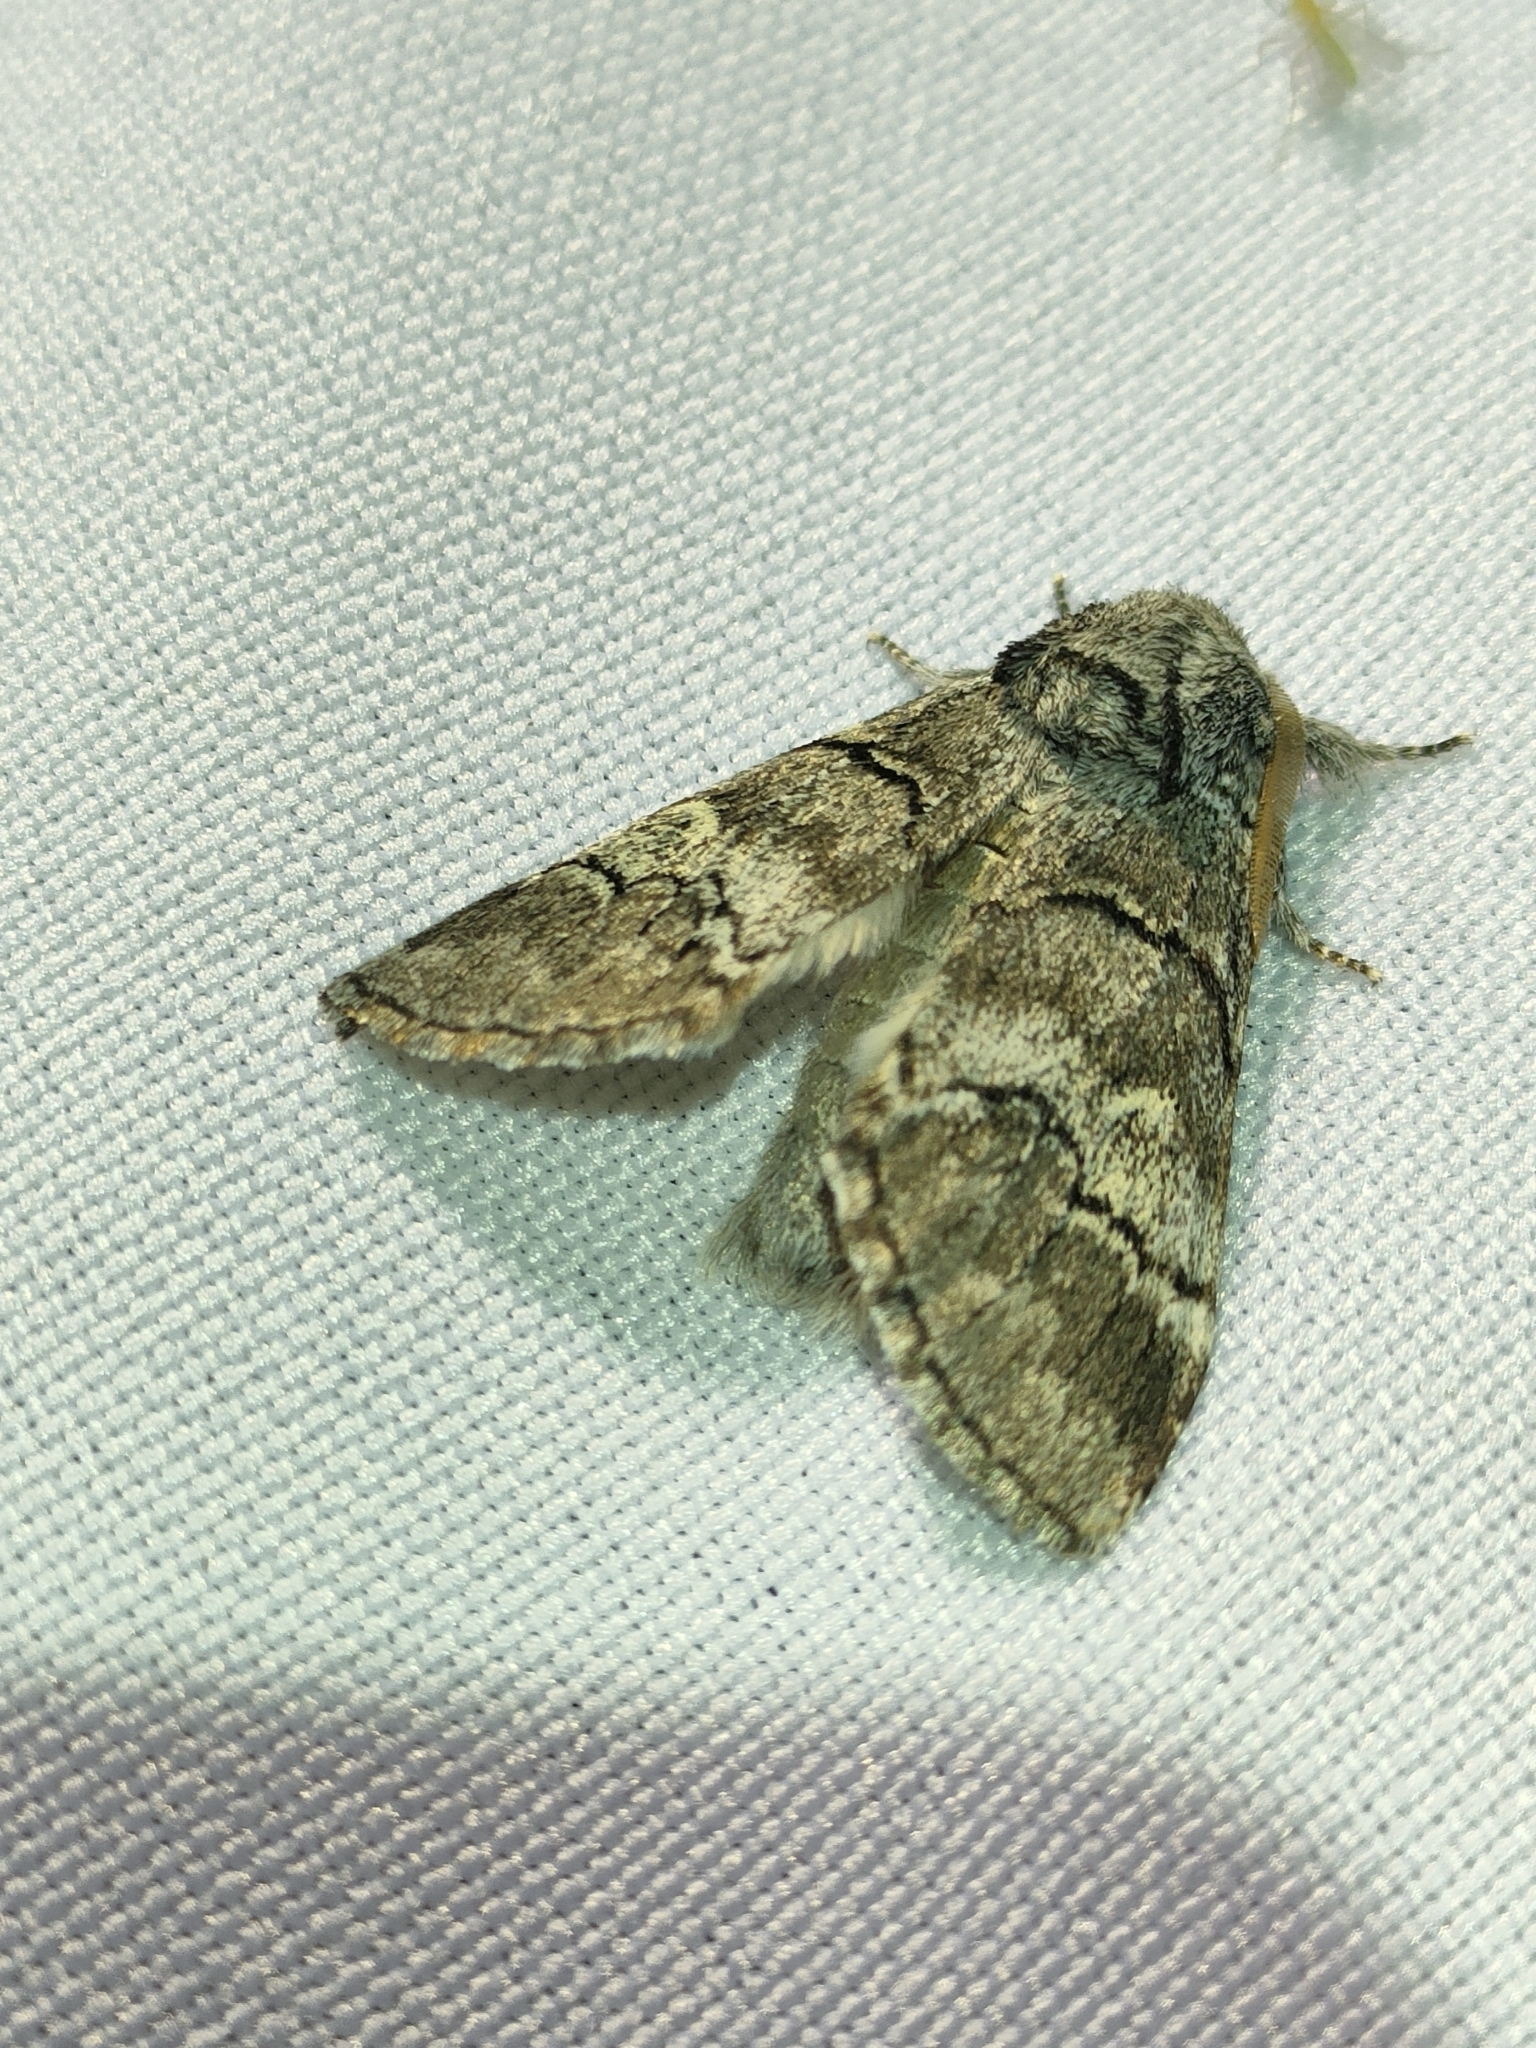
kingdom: Animalia
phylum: Arthropoda
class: Insecta
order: Lepidoptera
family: Notodontidae
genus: Drymonia
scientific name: Drymonia querna
